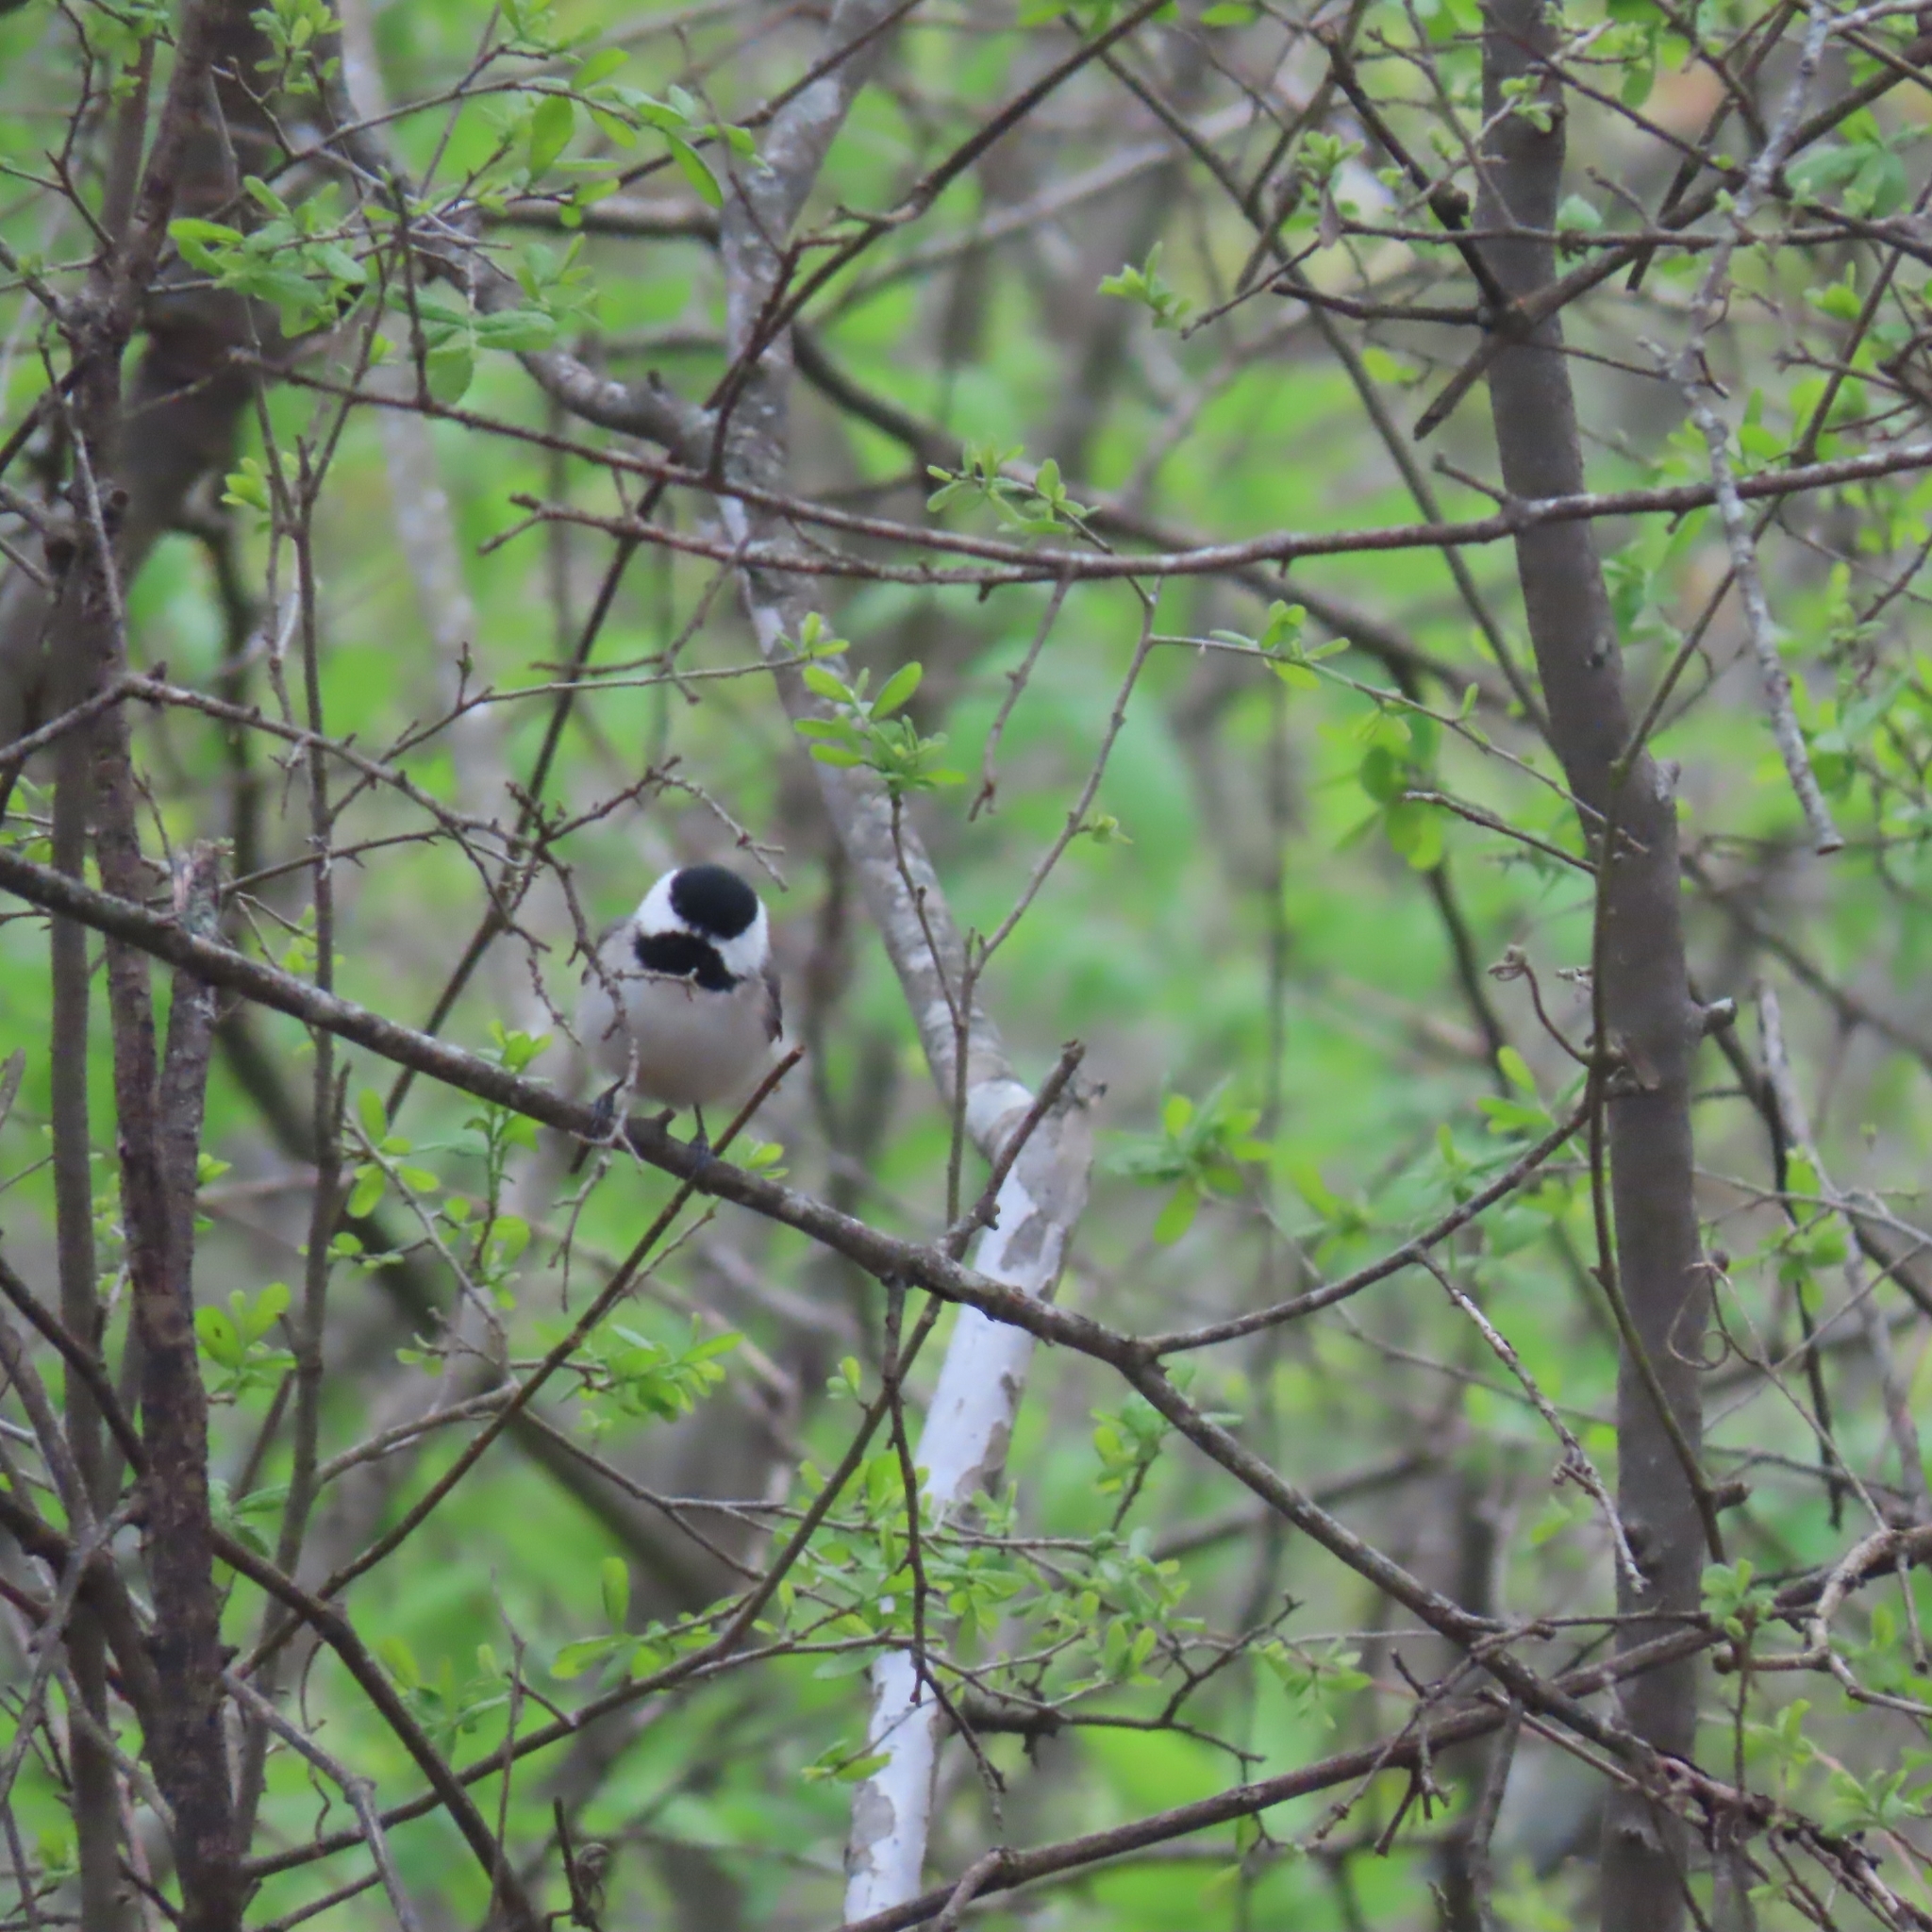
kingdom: Animalia
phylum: Chordata
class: Aves
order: Passeriformes
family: Paridae
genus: Poecile
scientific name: Poecile carolinensis
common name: Carolina chickadee
